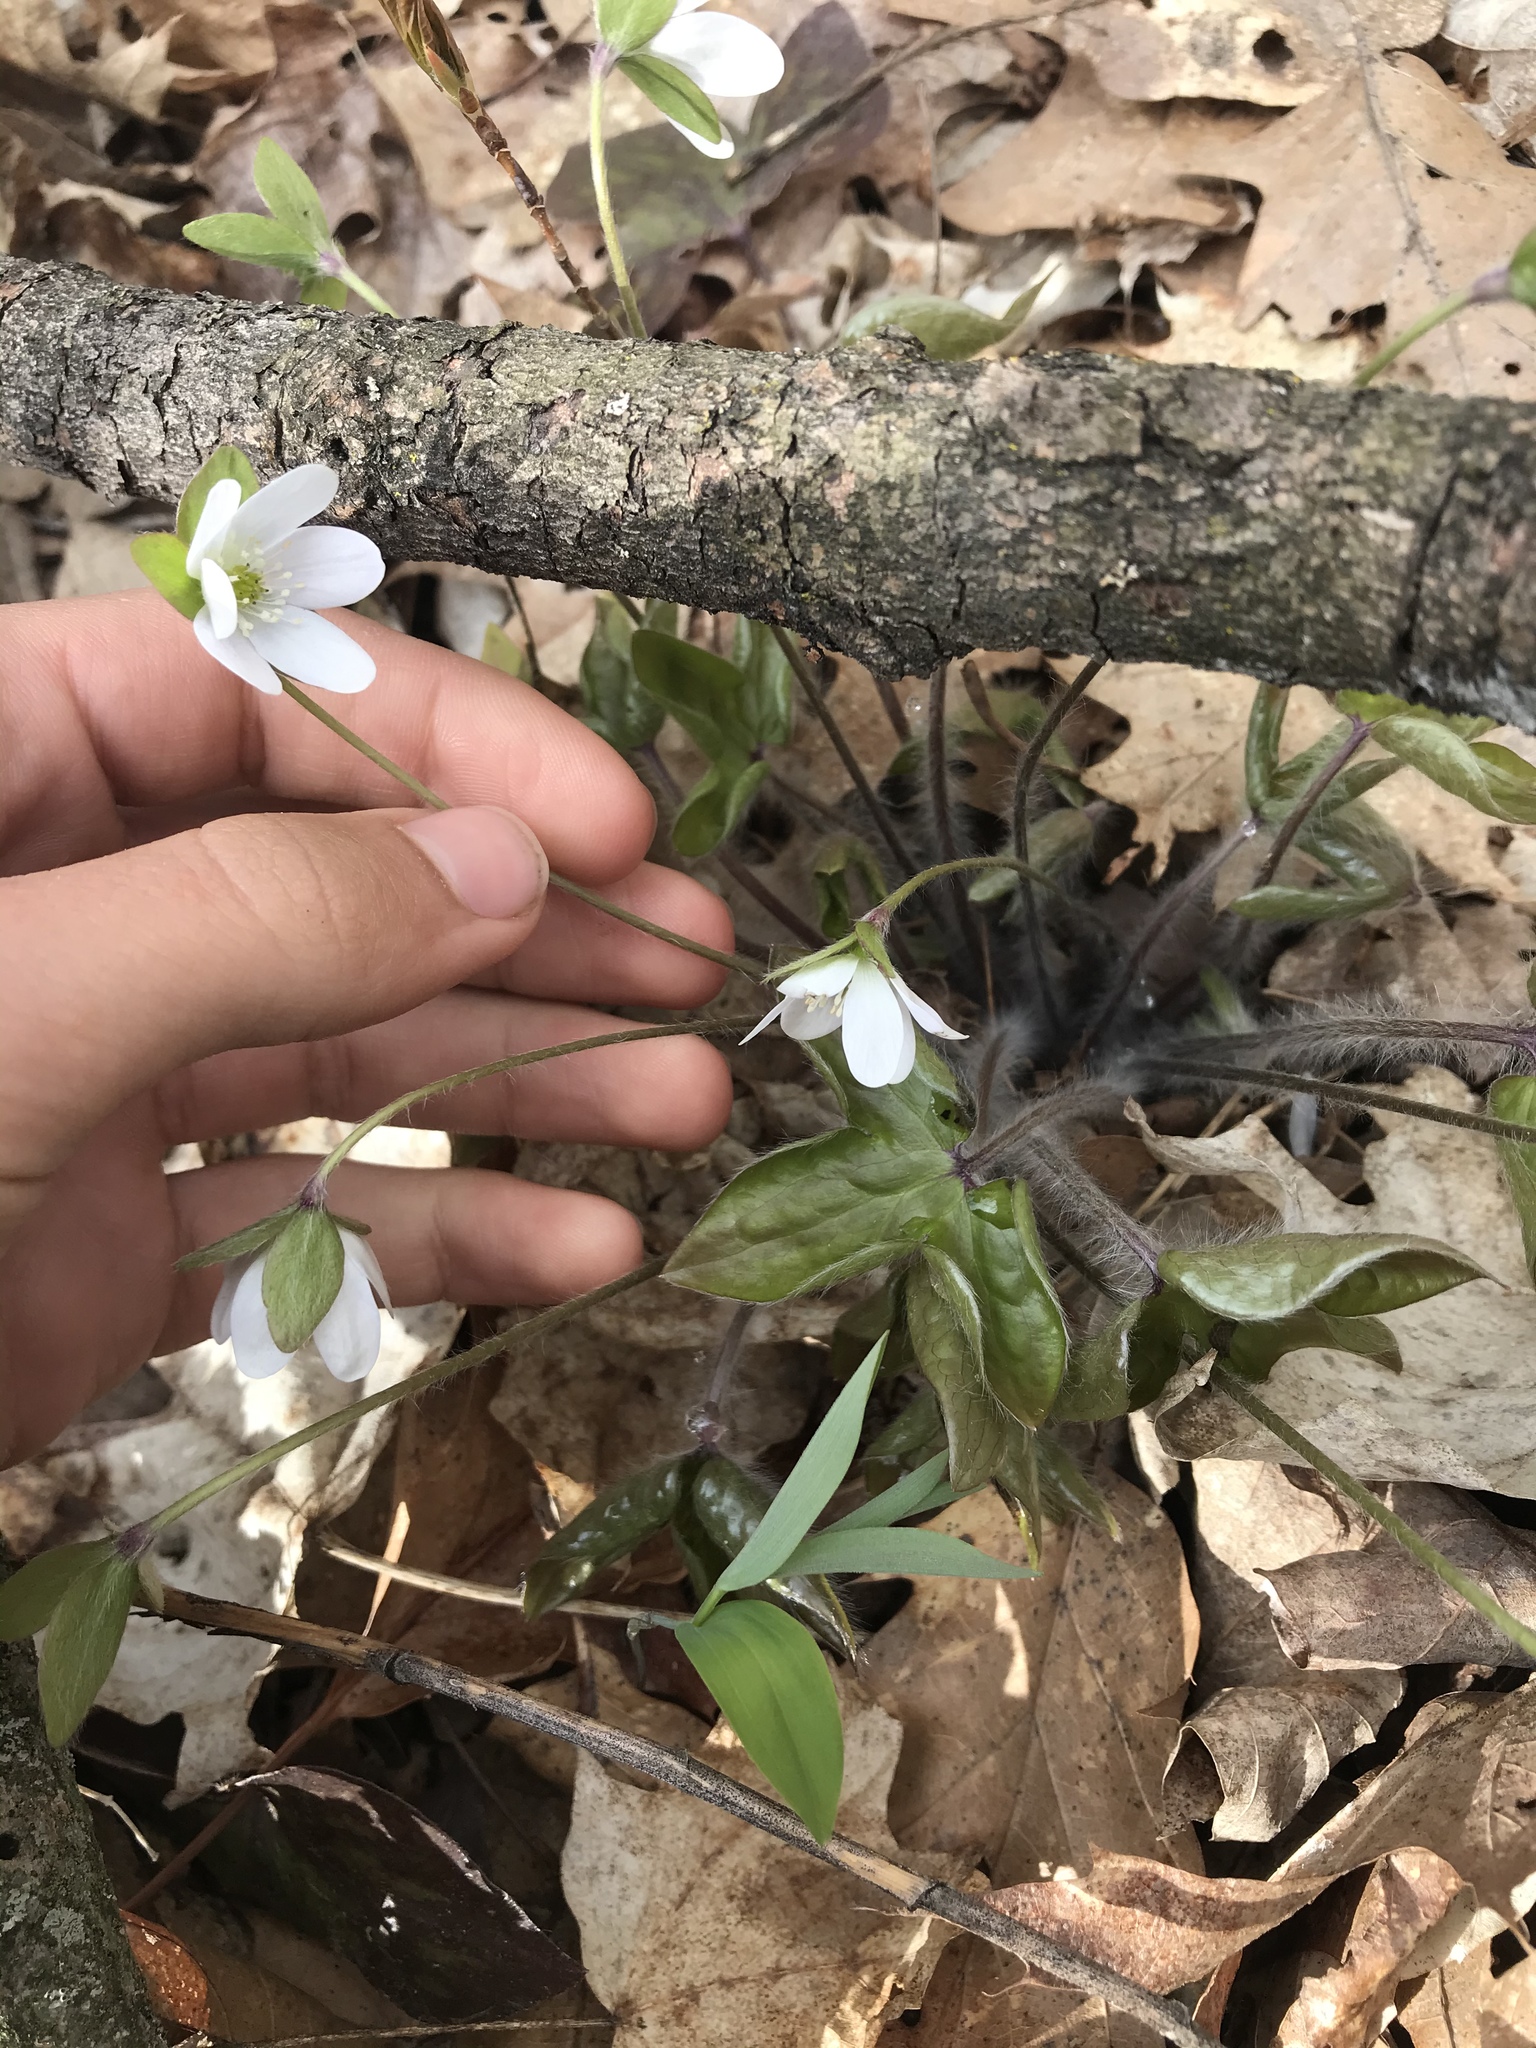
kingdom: Plantae
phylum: Tracheophyta
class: Magnoliopsida
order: Ranunculales
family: Ranunculaceae
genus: Hepatica
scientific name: Hepatica acutiloba
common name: Sharp-lobed hepatica
